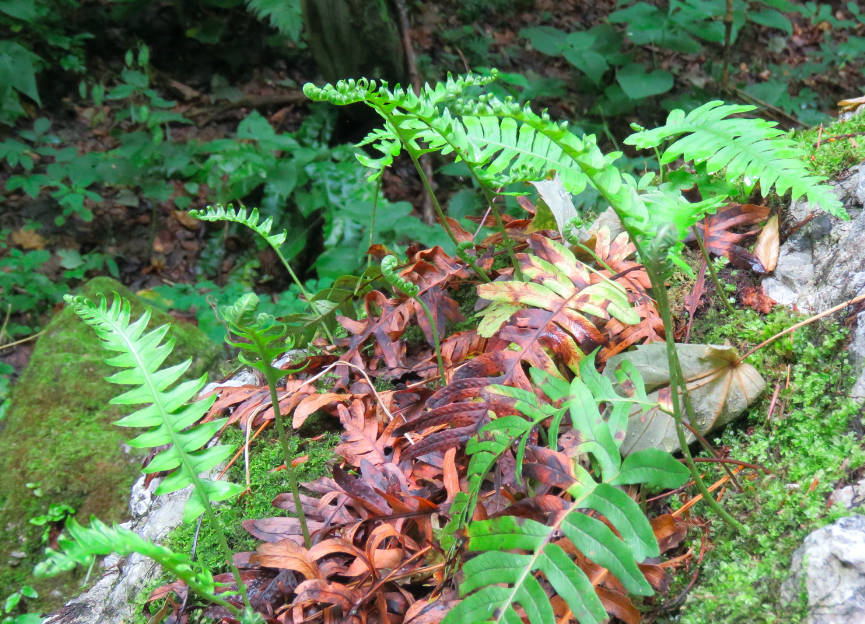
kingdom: Plantae
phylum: Tracheophyta
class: Polypodiopsida
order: Polypodiales
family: Polypodiaceae
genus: Polypodium
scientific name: Polypodium vulgare
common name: Common polypody
